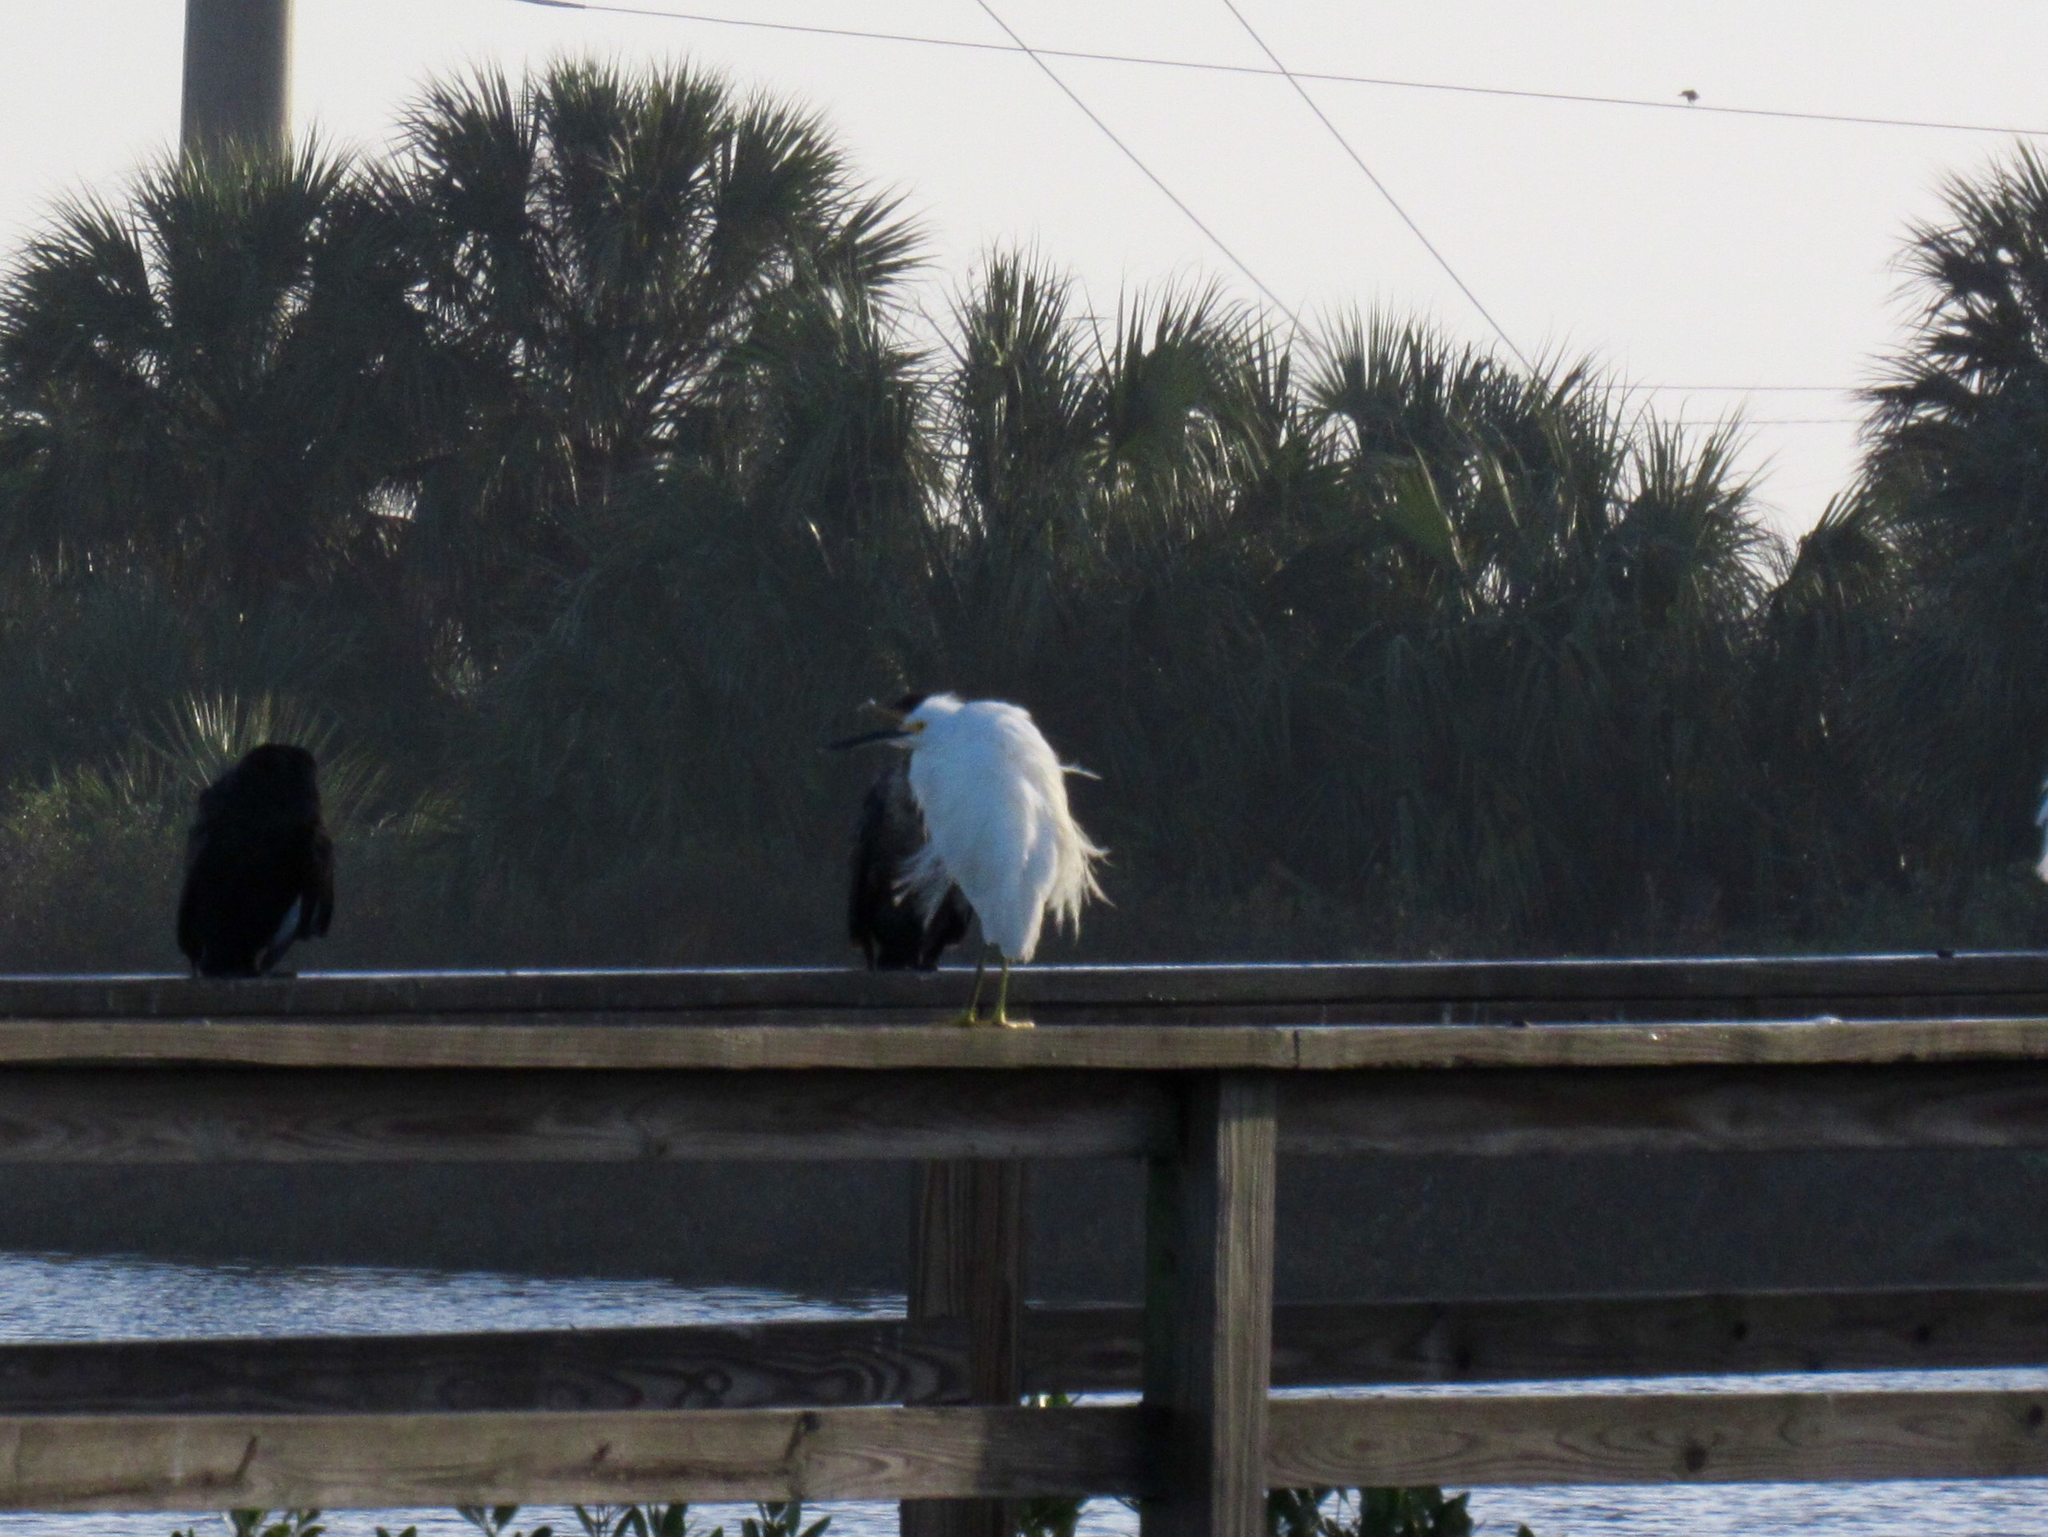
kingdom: Animalia
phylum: Chordata
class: Aves
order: Pelecaniformes
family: Ardeidae
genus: Egretta
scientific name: Egretta thula
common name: Snowy egret
